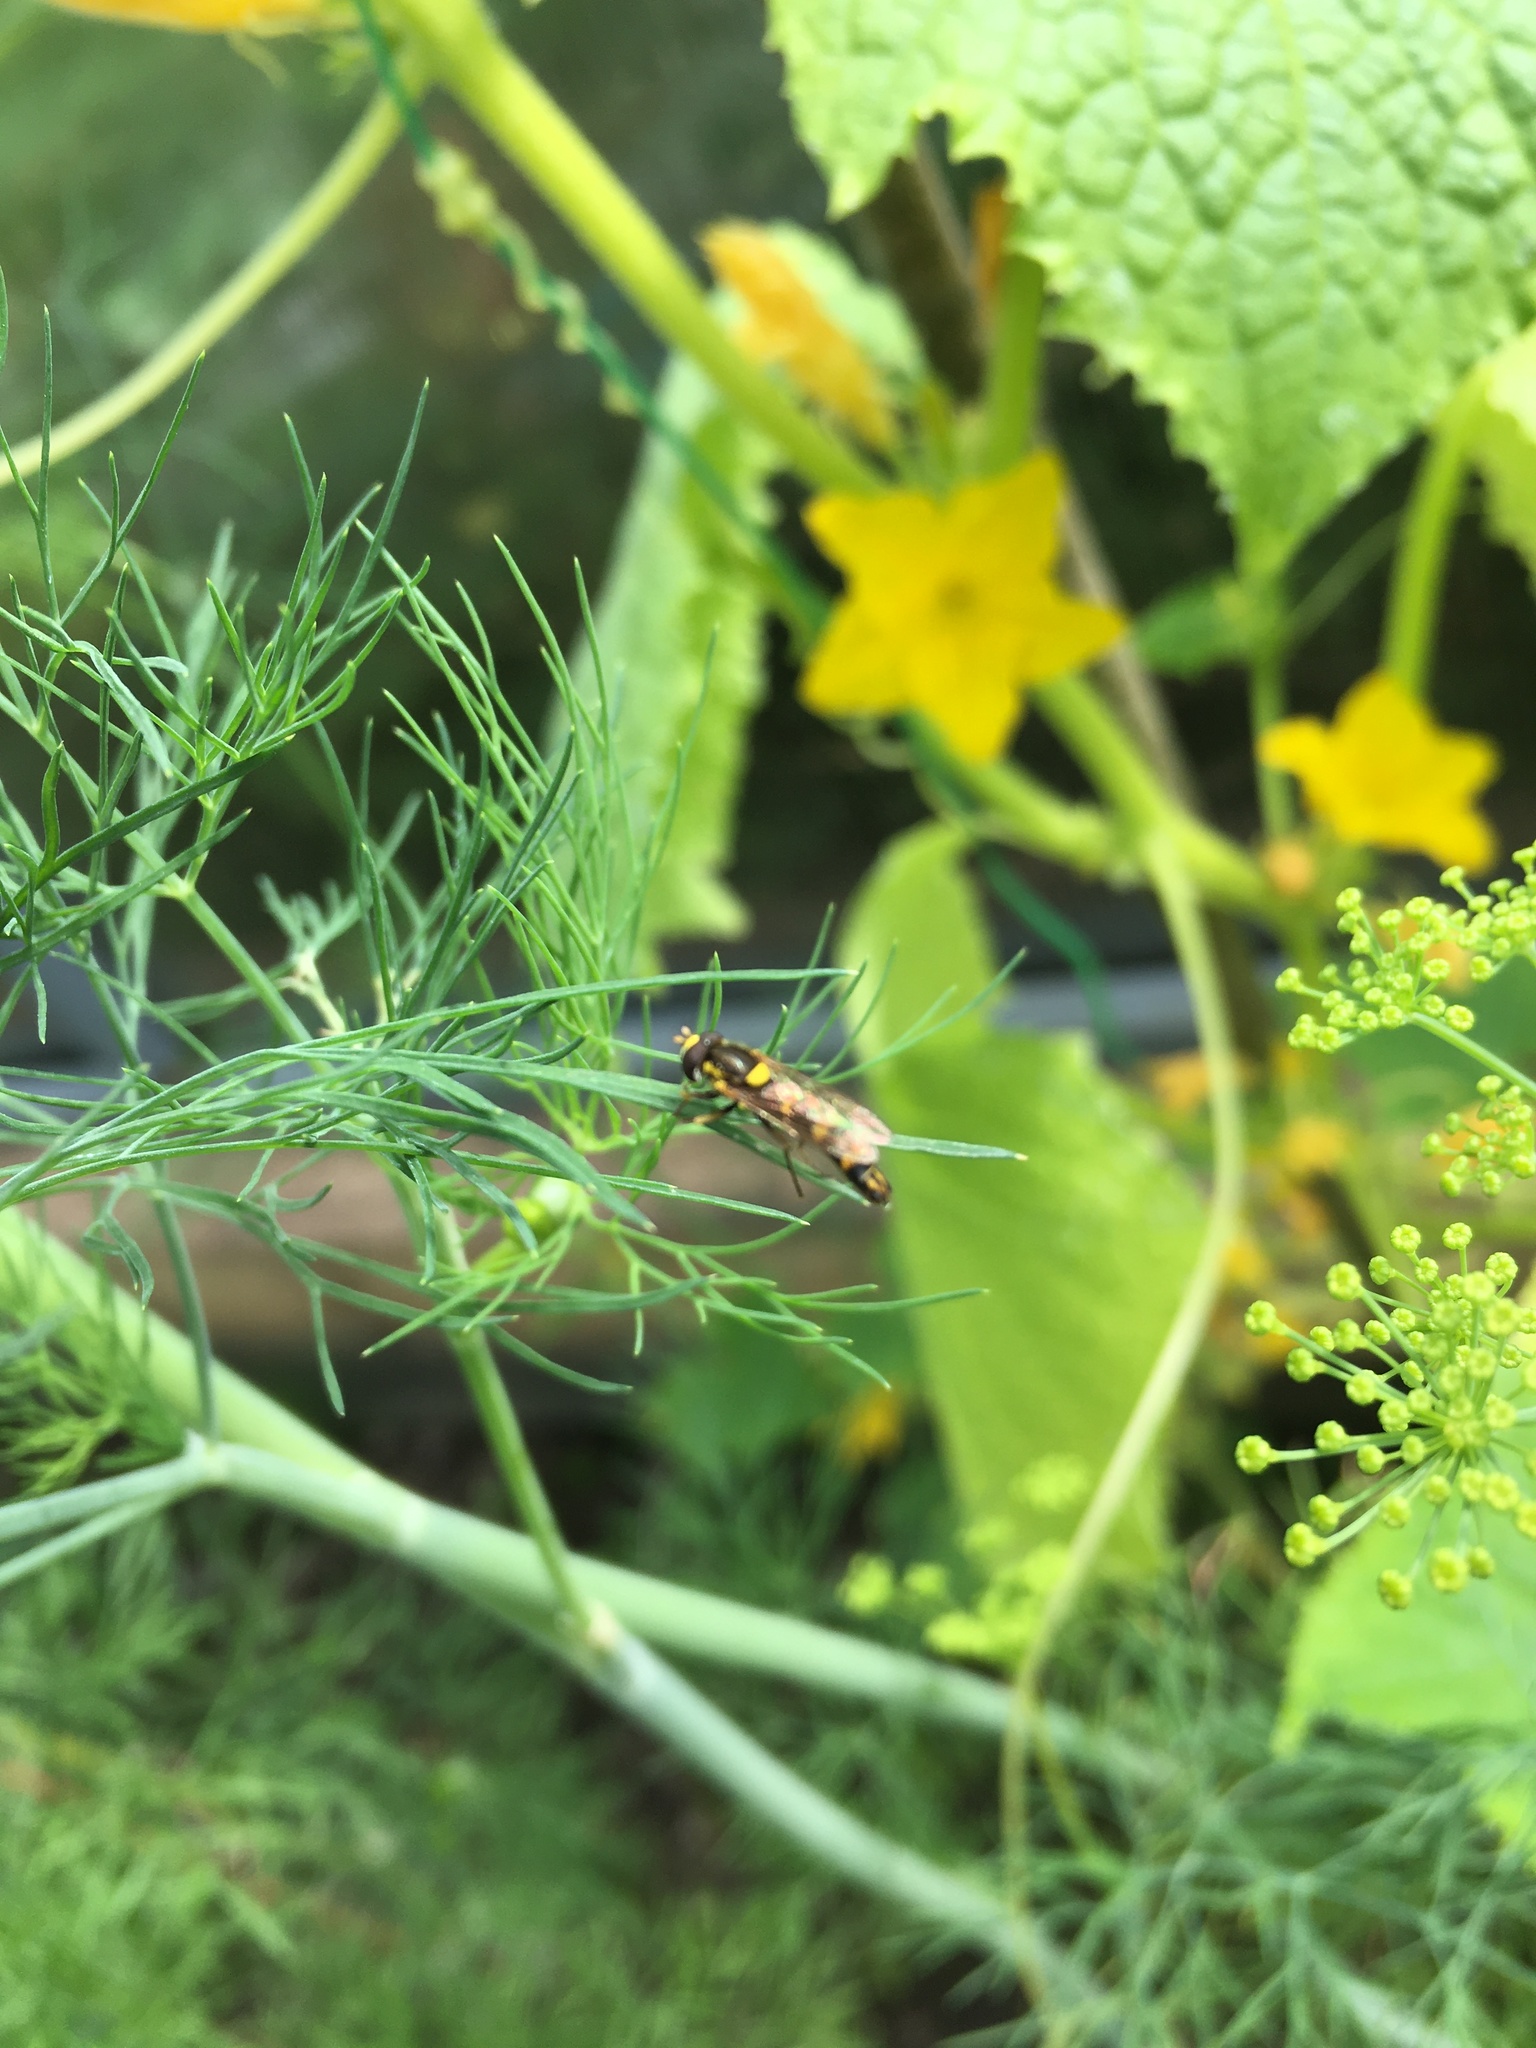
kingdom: Animalia
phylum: Arthropoda
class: Insecta
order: Diptera
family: Syrphidae
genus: Sphaerophoria
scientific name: Sphaerophoria scripta
